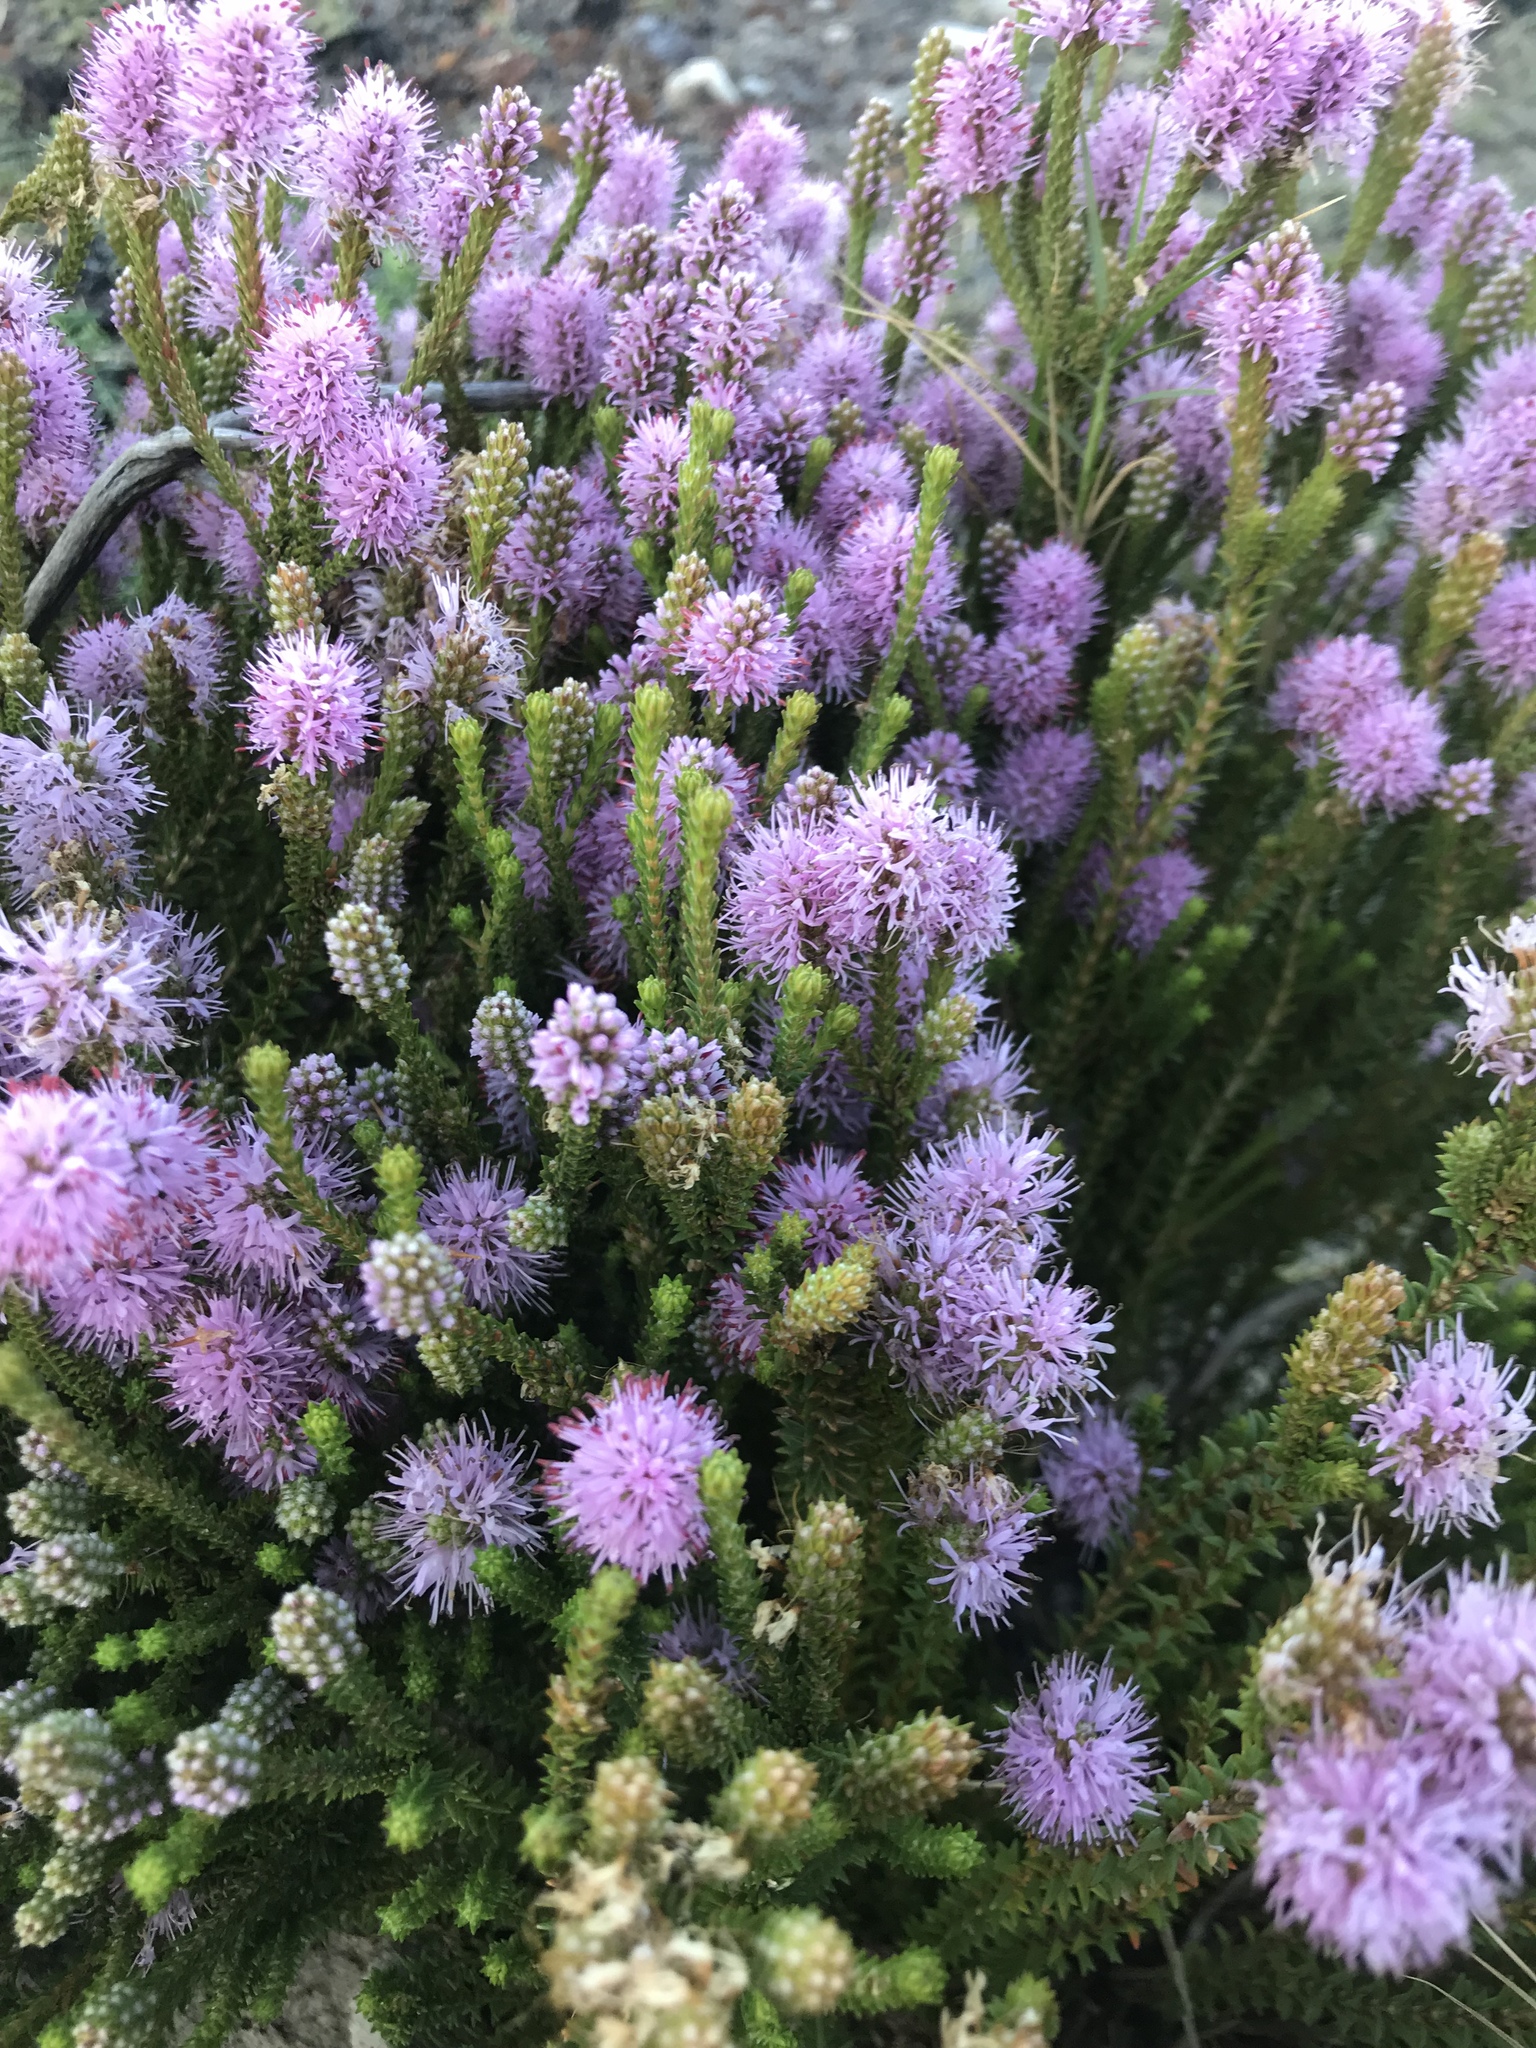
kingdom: Plantae
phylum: Tracheophyta
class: Magnoliopsida
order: Lamiales
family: Stilbaceae
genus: Stilbe
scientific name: Stilbe ericoides
